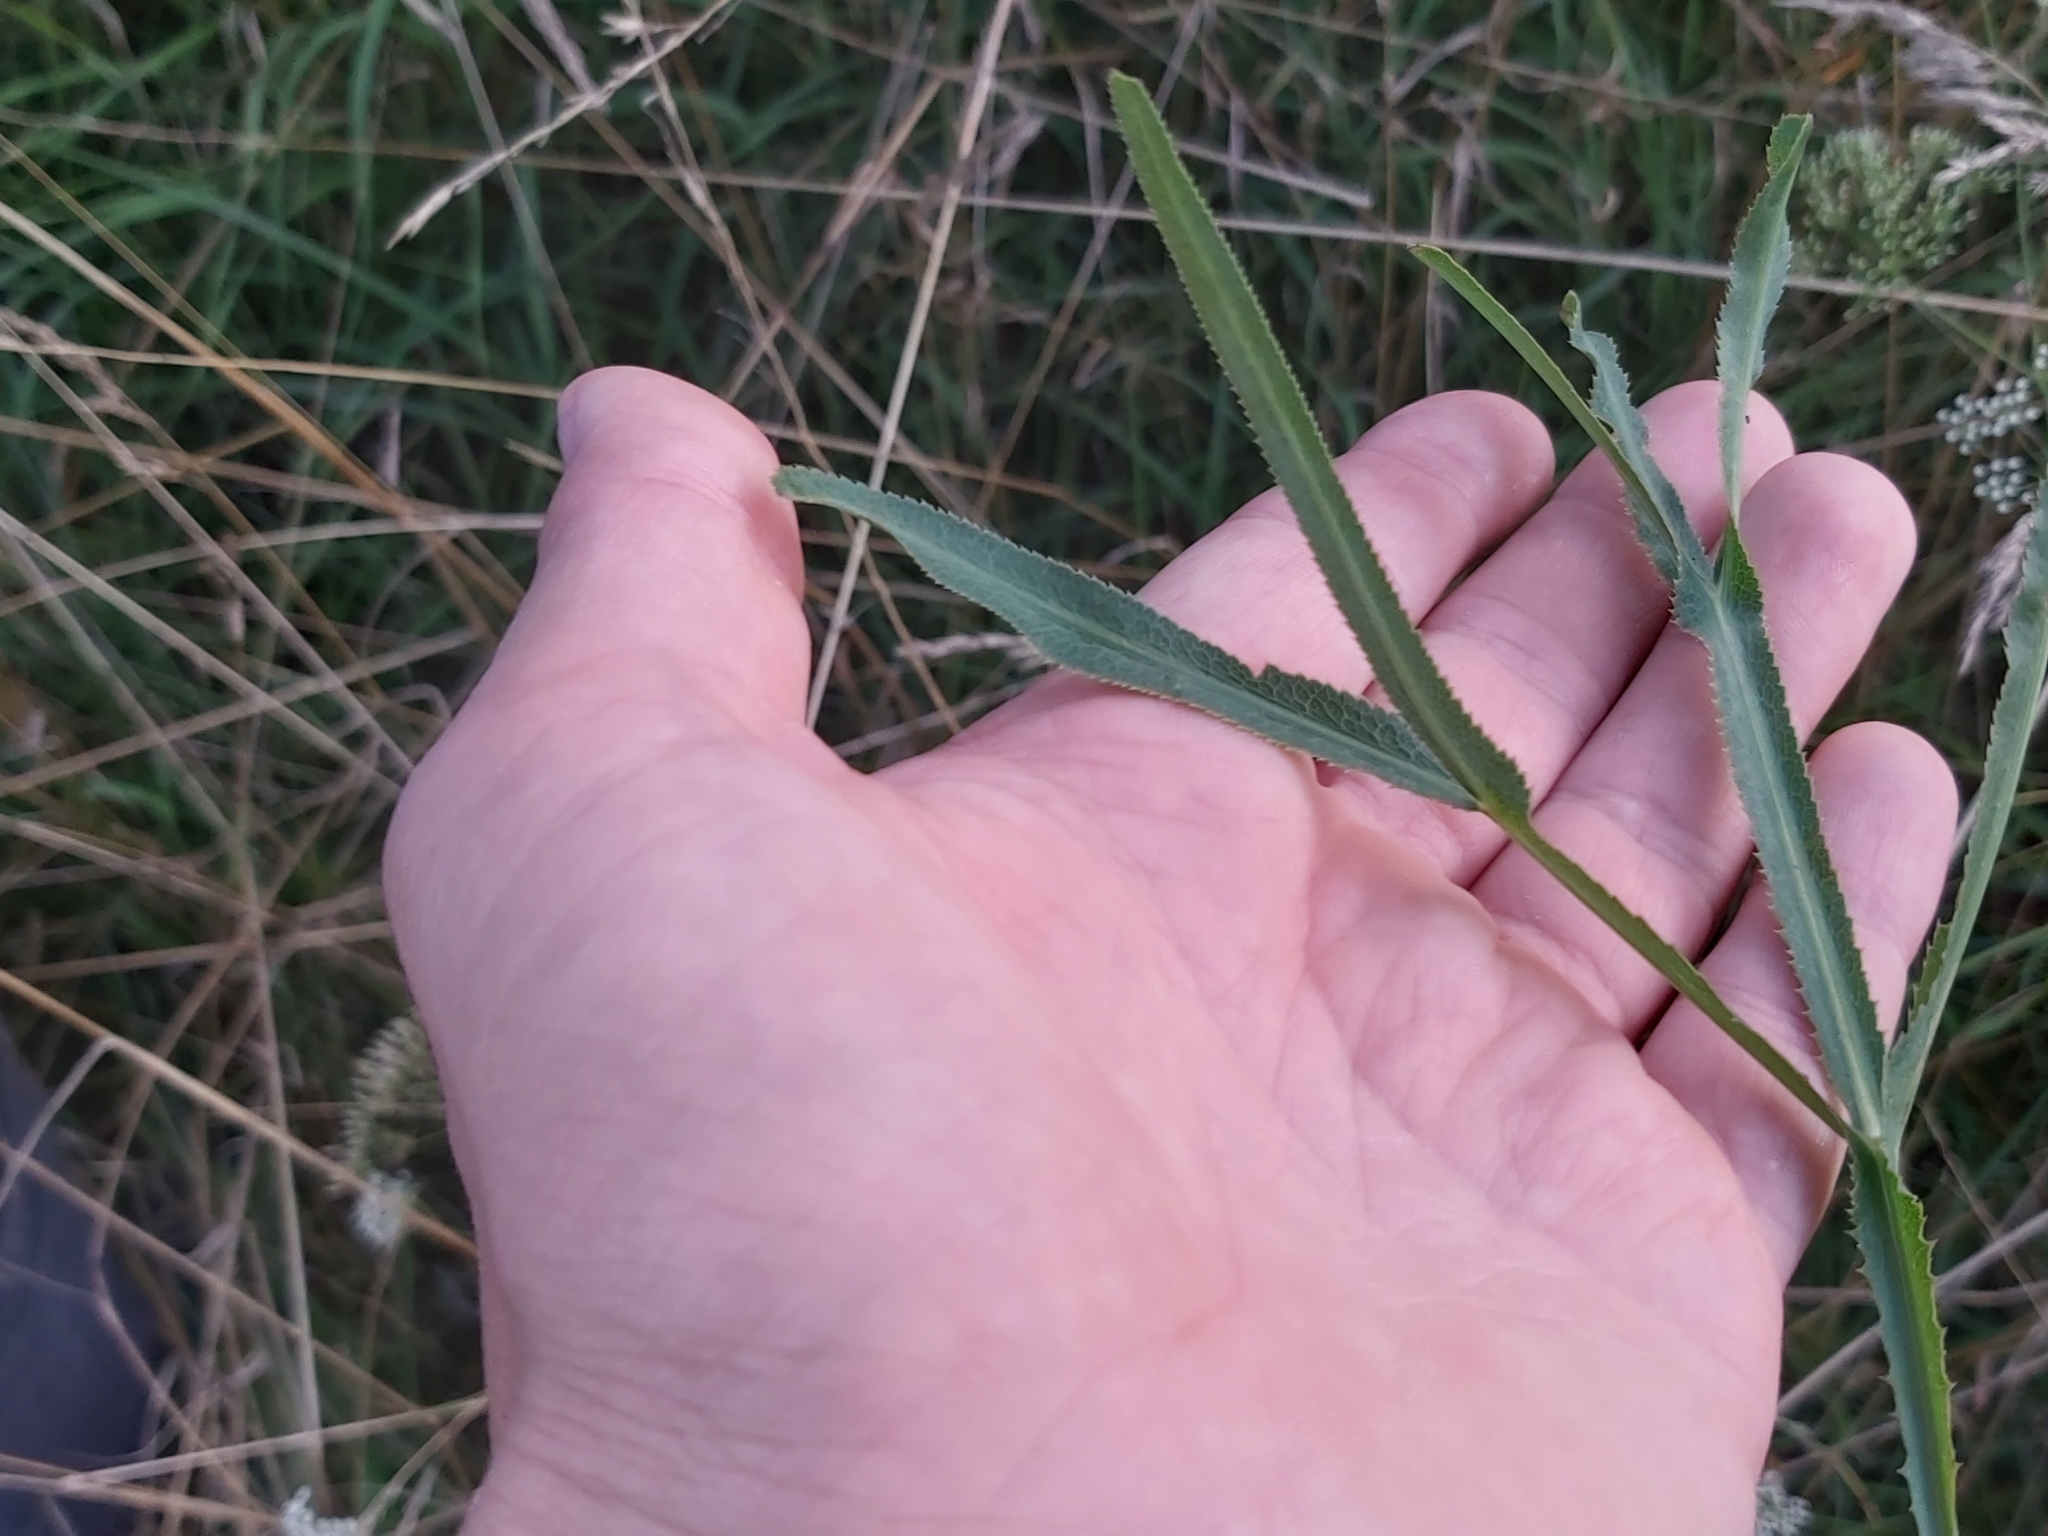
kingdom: Plantae
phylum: Tracheophyta
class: Magnoliopsida
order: Apiales
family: Apiaceae
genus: Falcaria
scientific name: Falcaria vulgaris
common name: Longleaf
